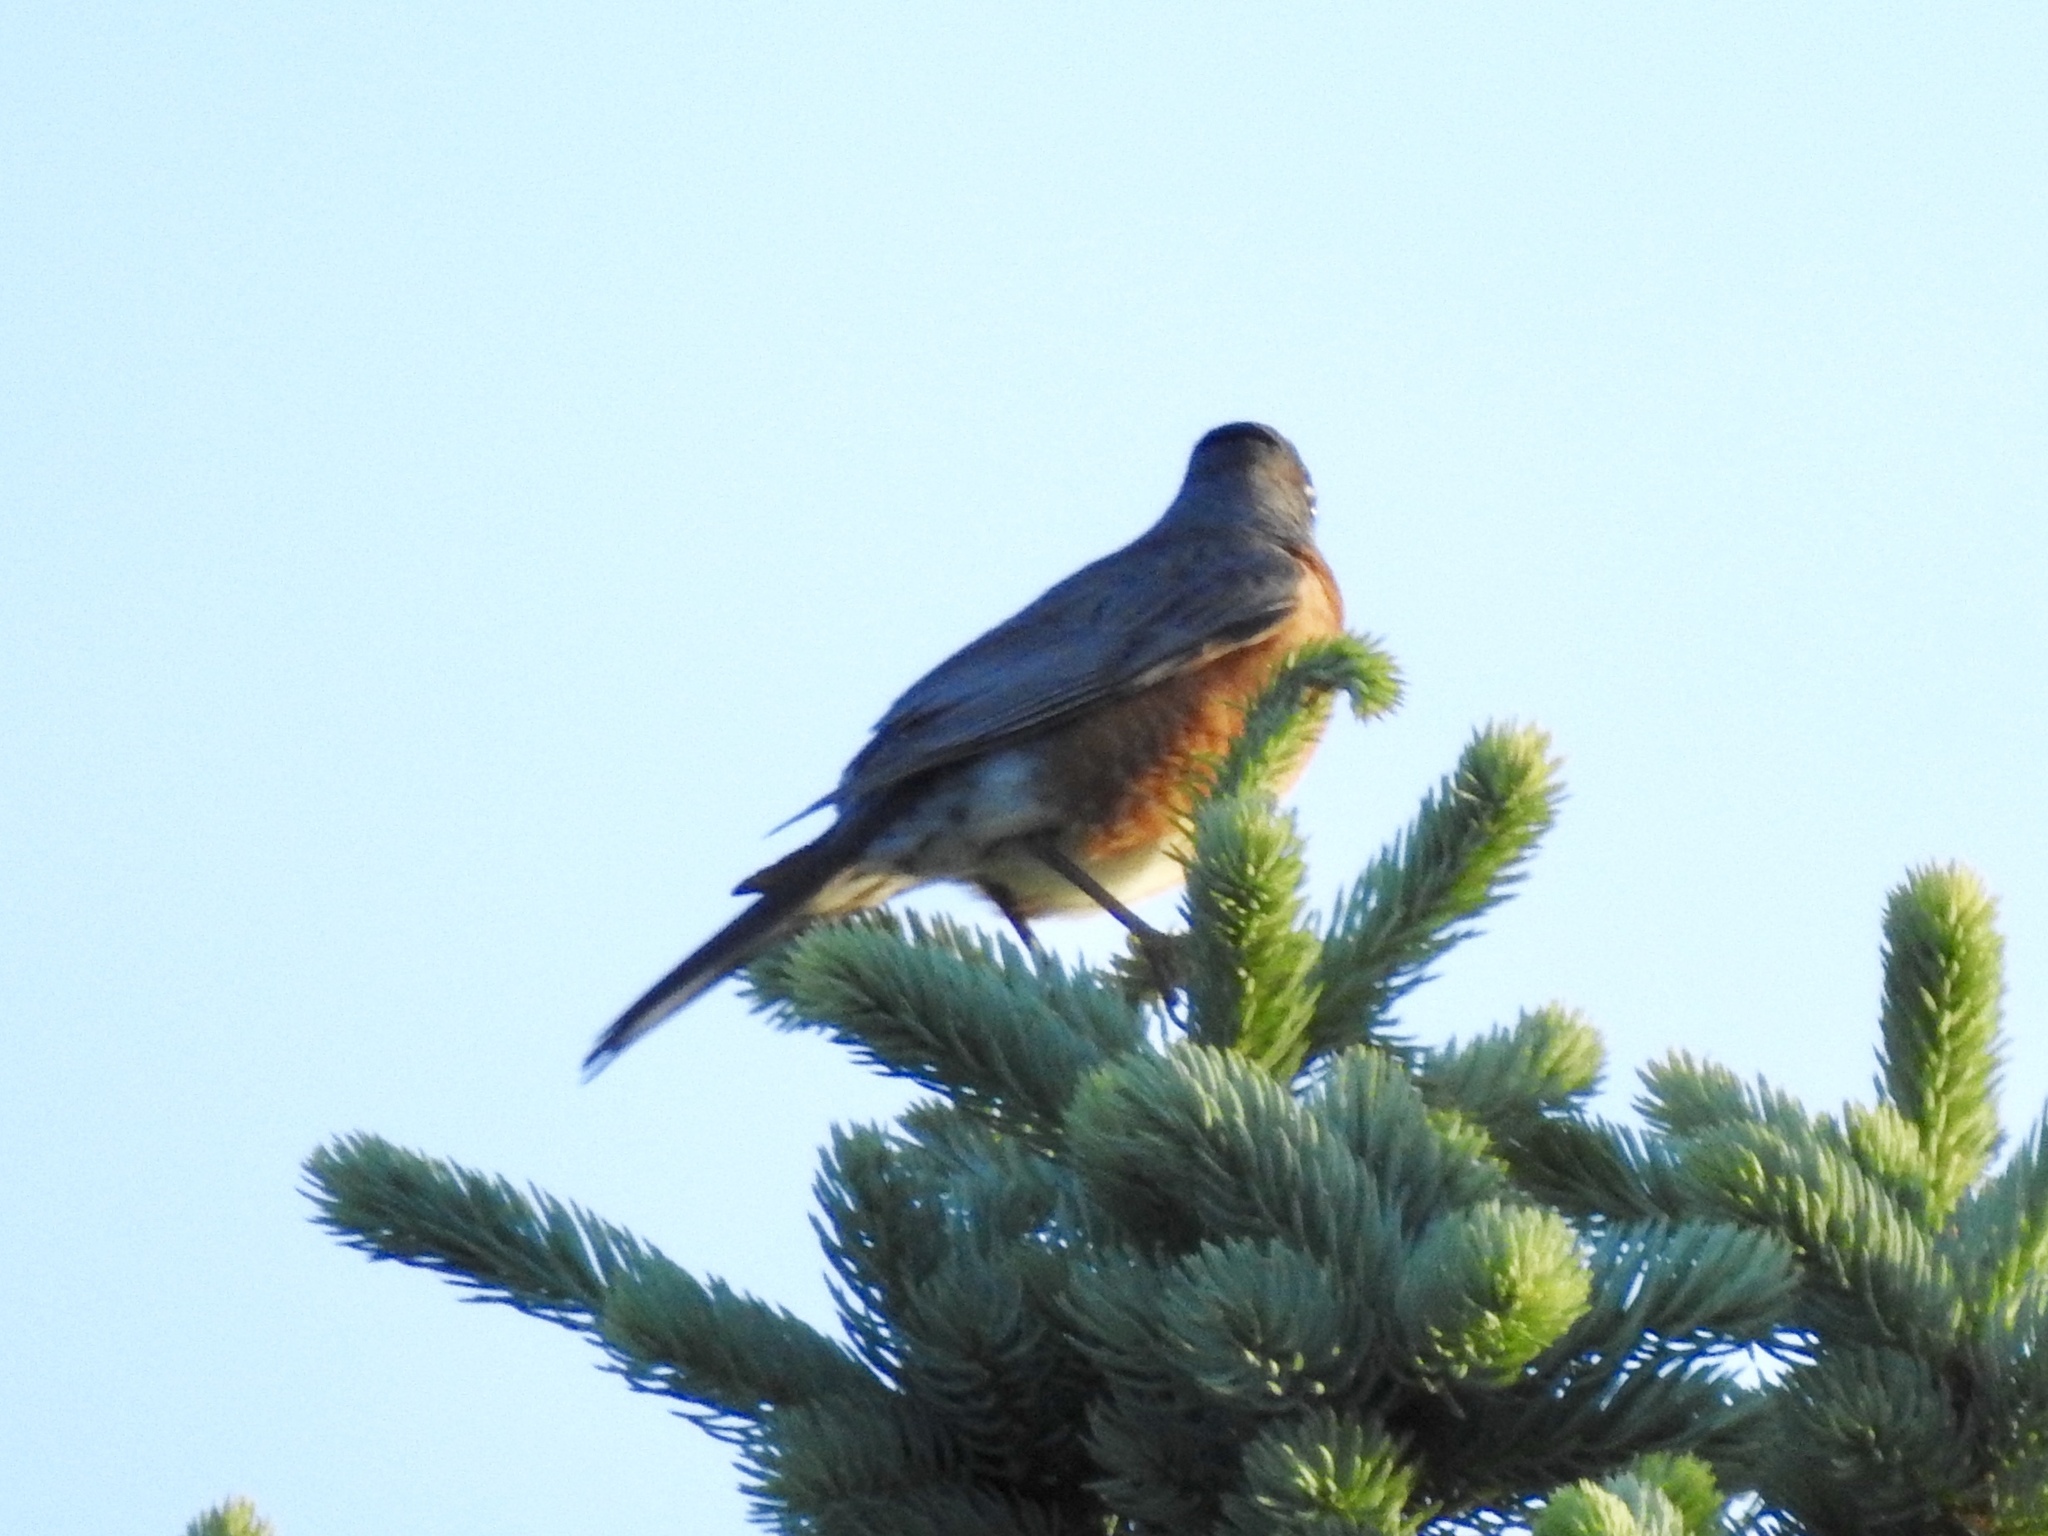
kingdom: Animalia
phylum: Chordata
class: Aves
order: Passeriformes
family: Turdidae
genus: Turdus
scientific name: Turdus migratorius
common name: American robin
